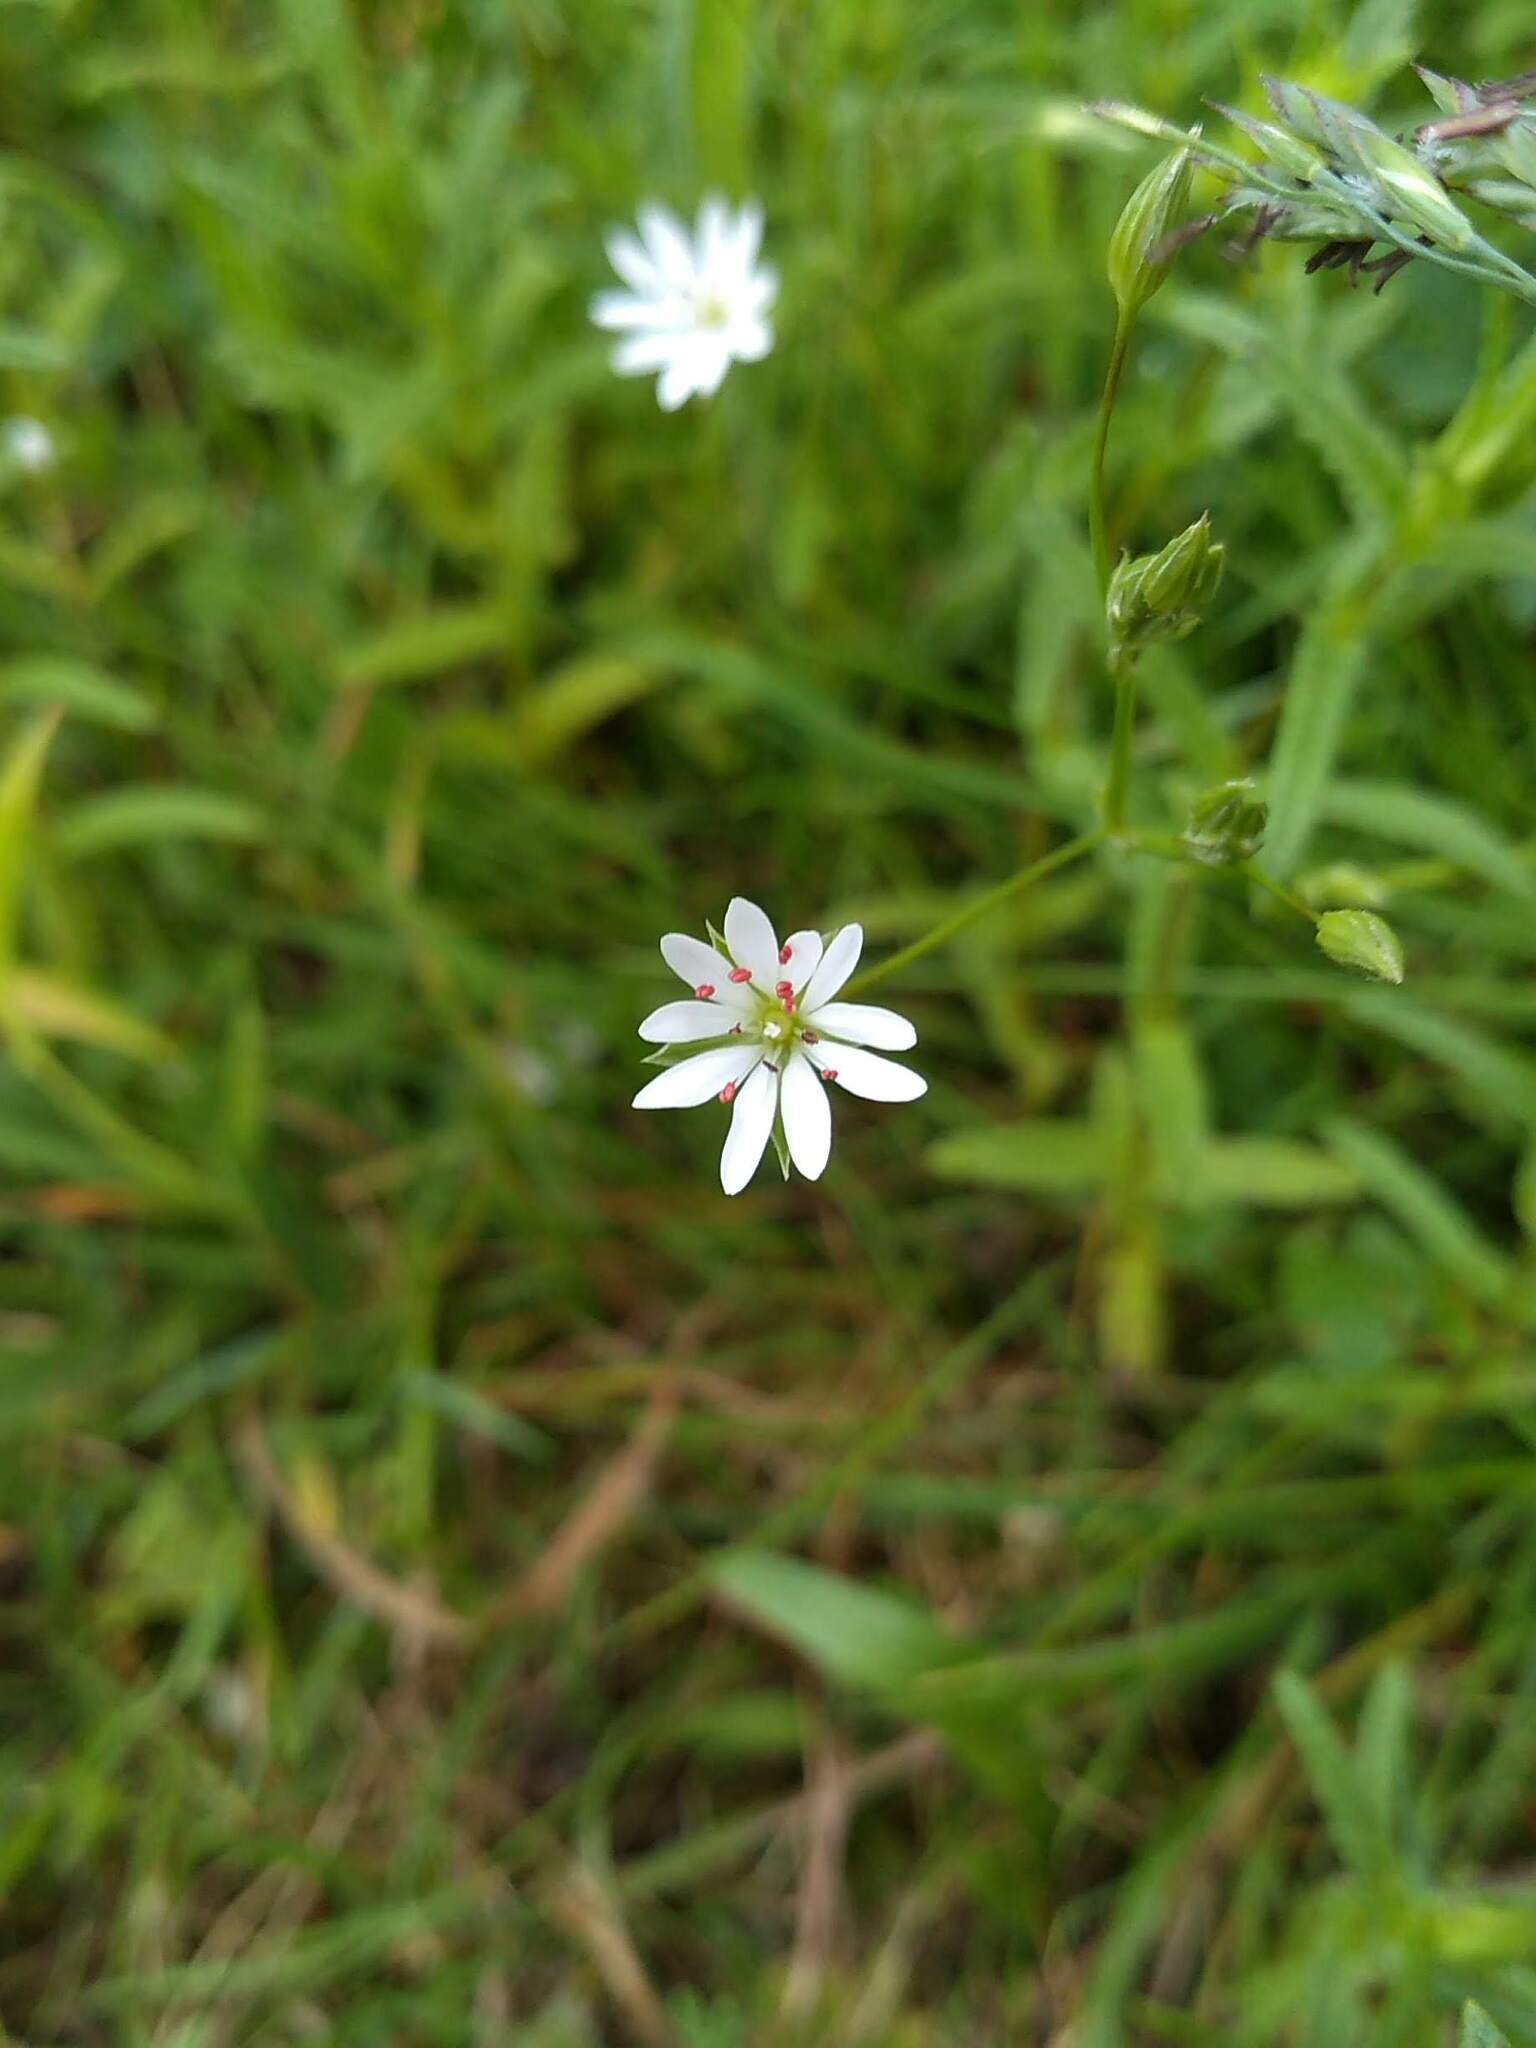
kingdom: Plantae
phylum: Tracheophyta
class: Magnoliopsida
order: Caryophyllales
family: Caryophyllaceae
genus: Stellaria
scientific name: Stellaria graminea
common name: Grass-like starwort
